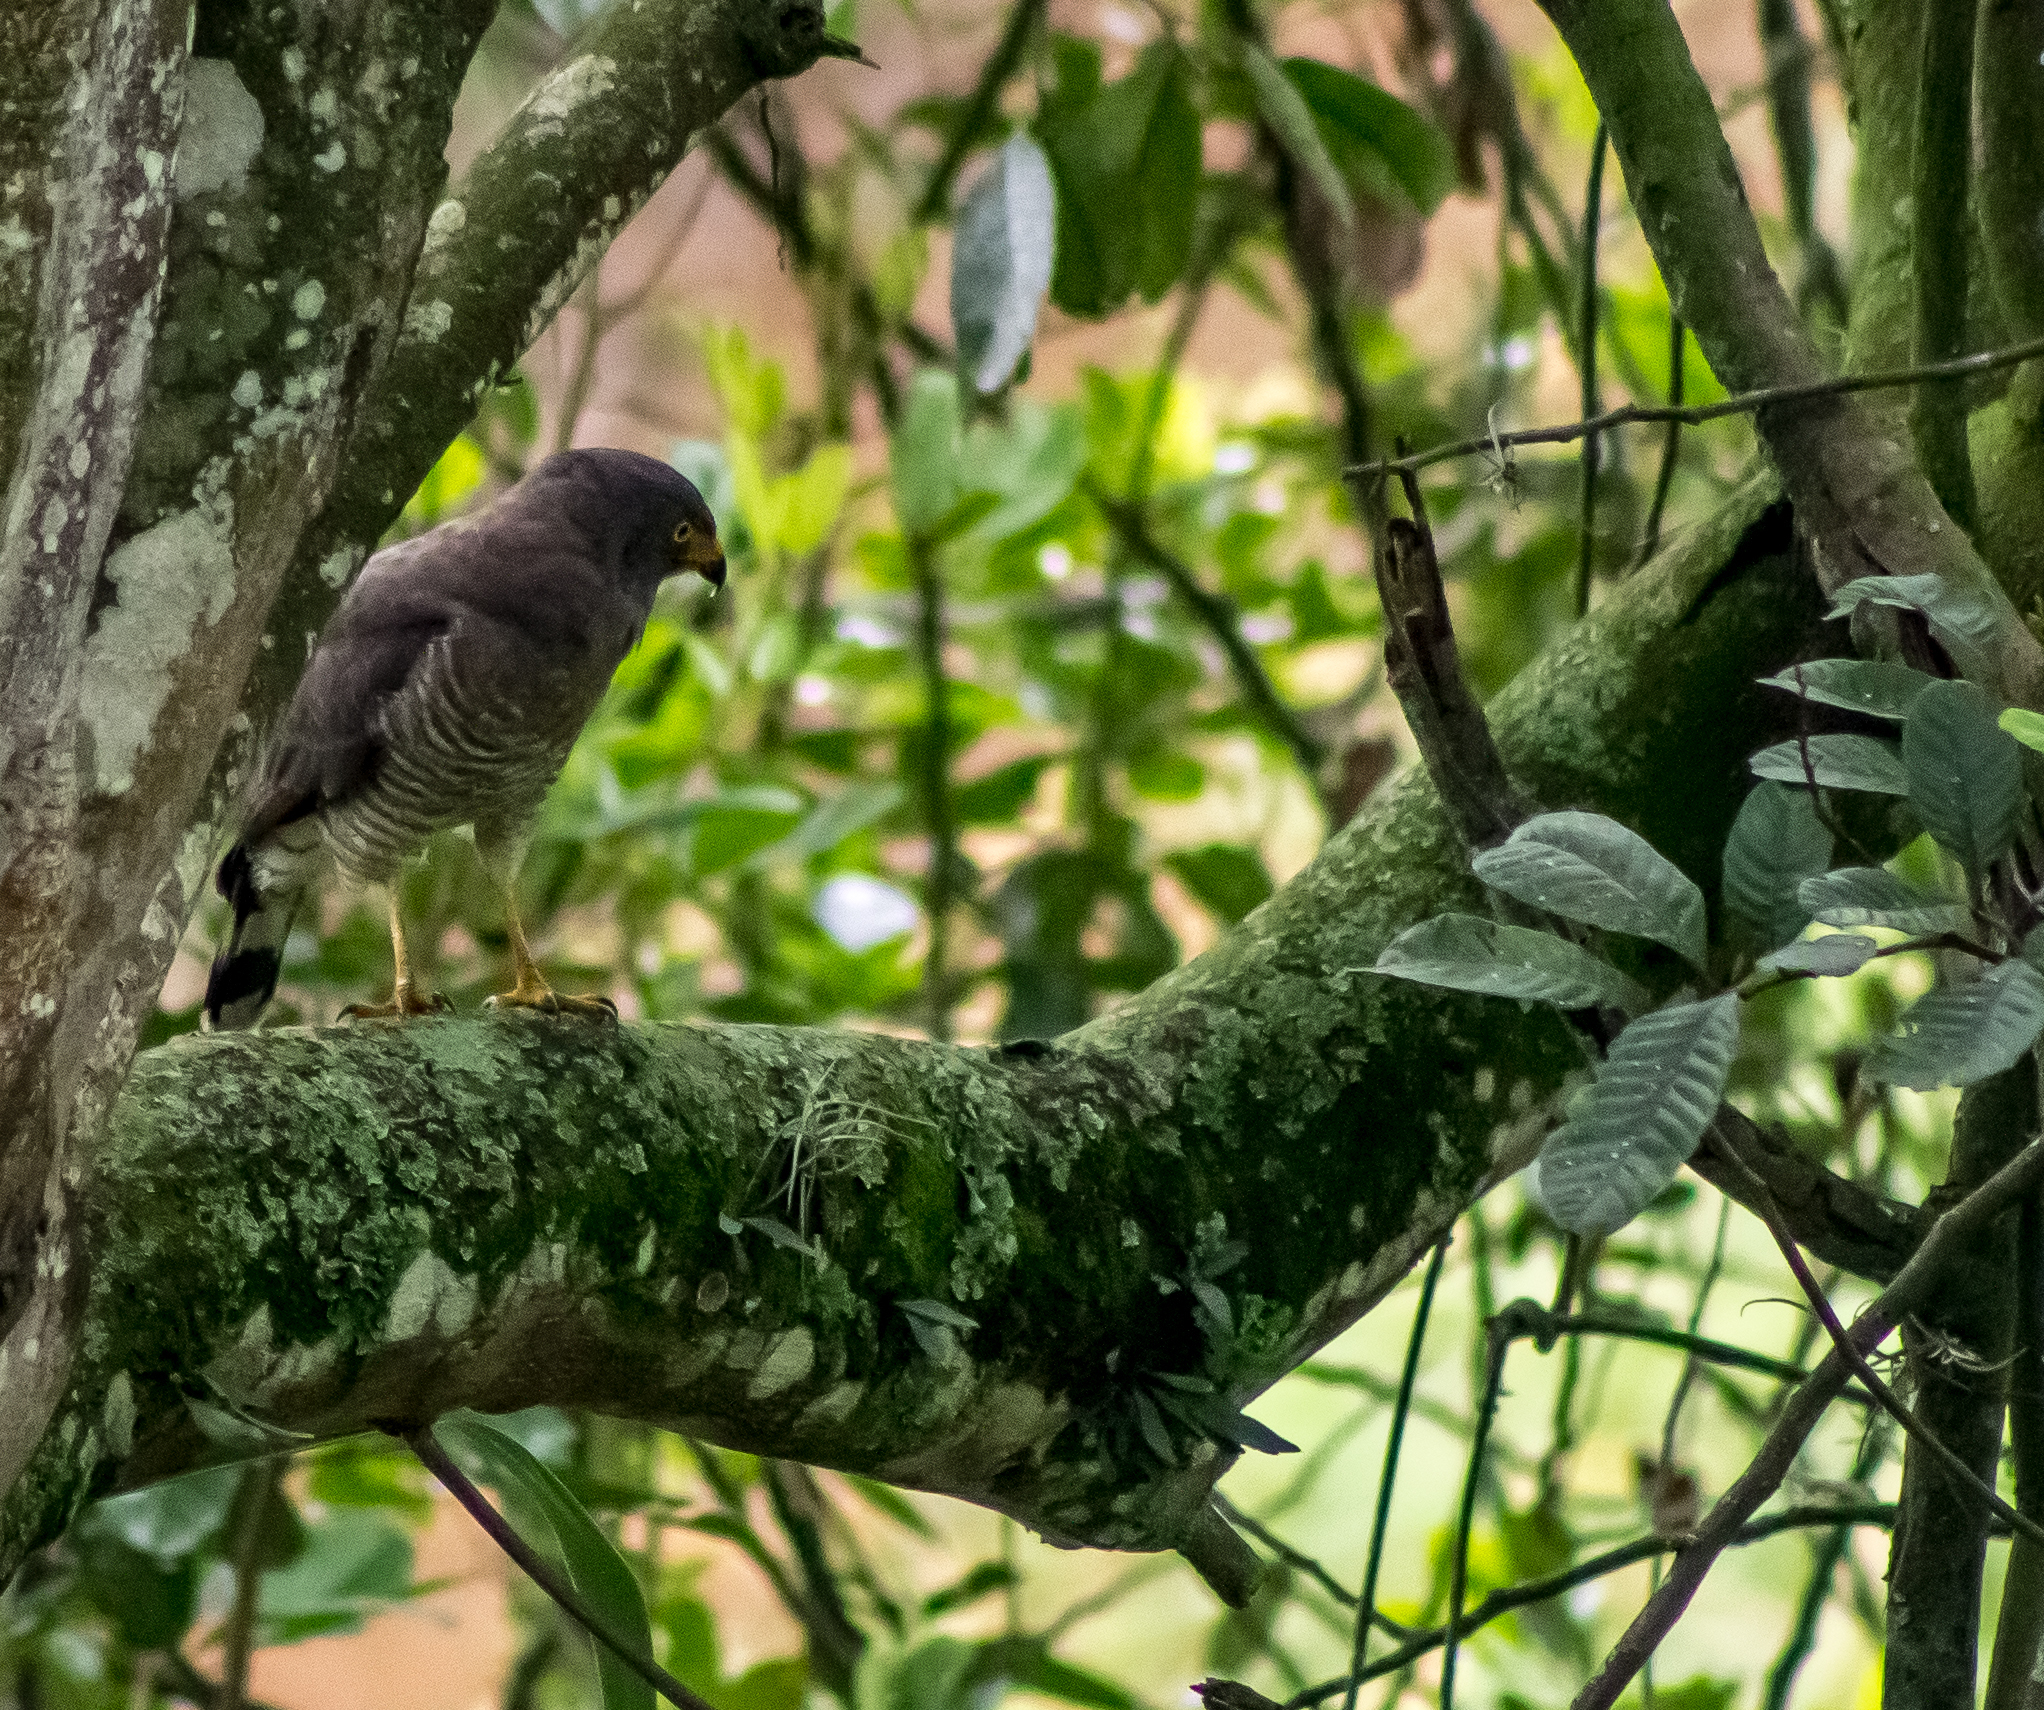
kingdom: Animalia
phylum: Chordata
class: Aves
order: Accipitriformes
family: Accipitridae
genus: Rupornis
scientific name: Rupornis magnirostris
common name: Roadside hawk
